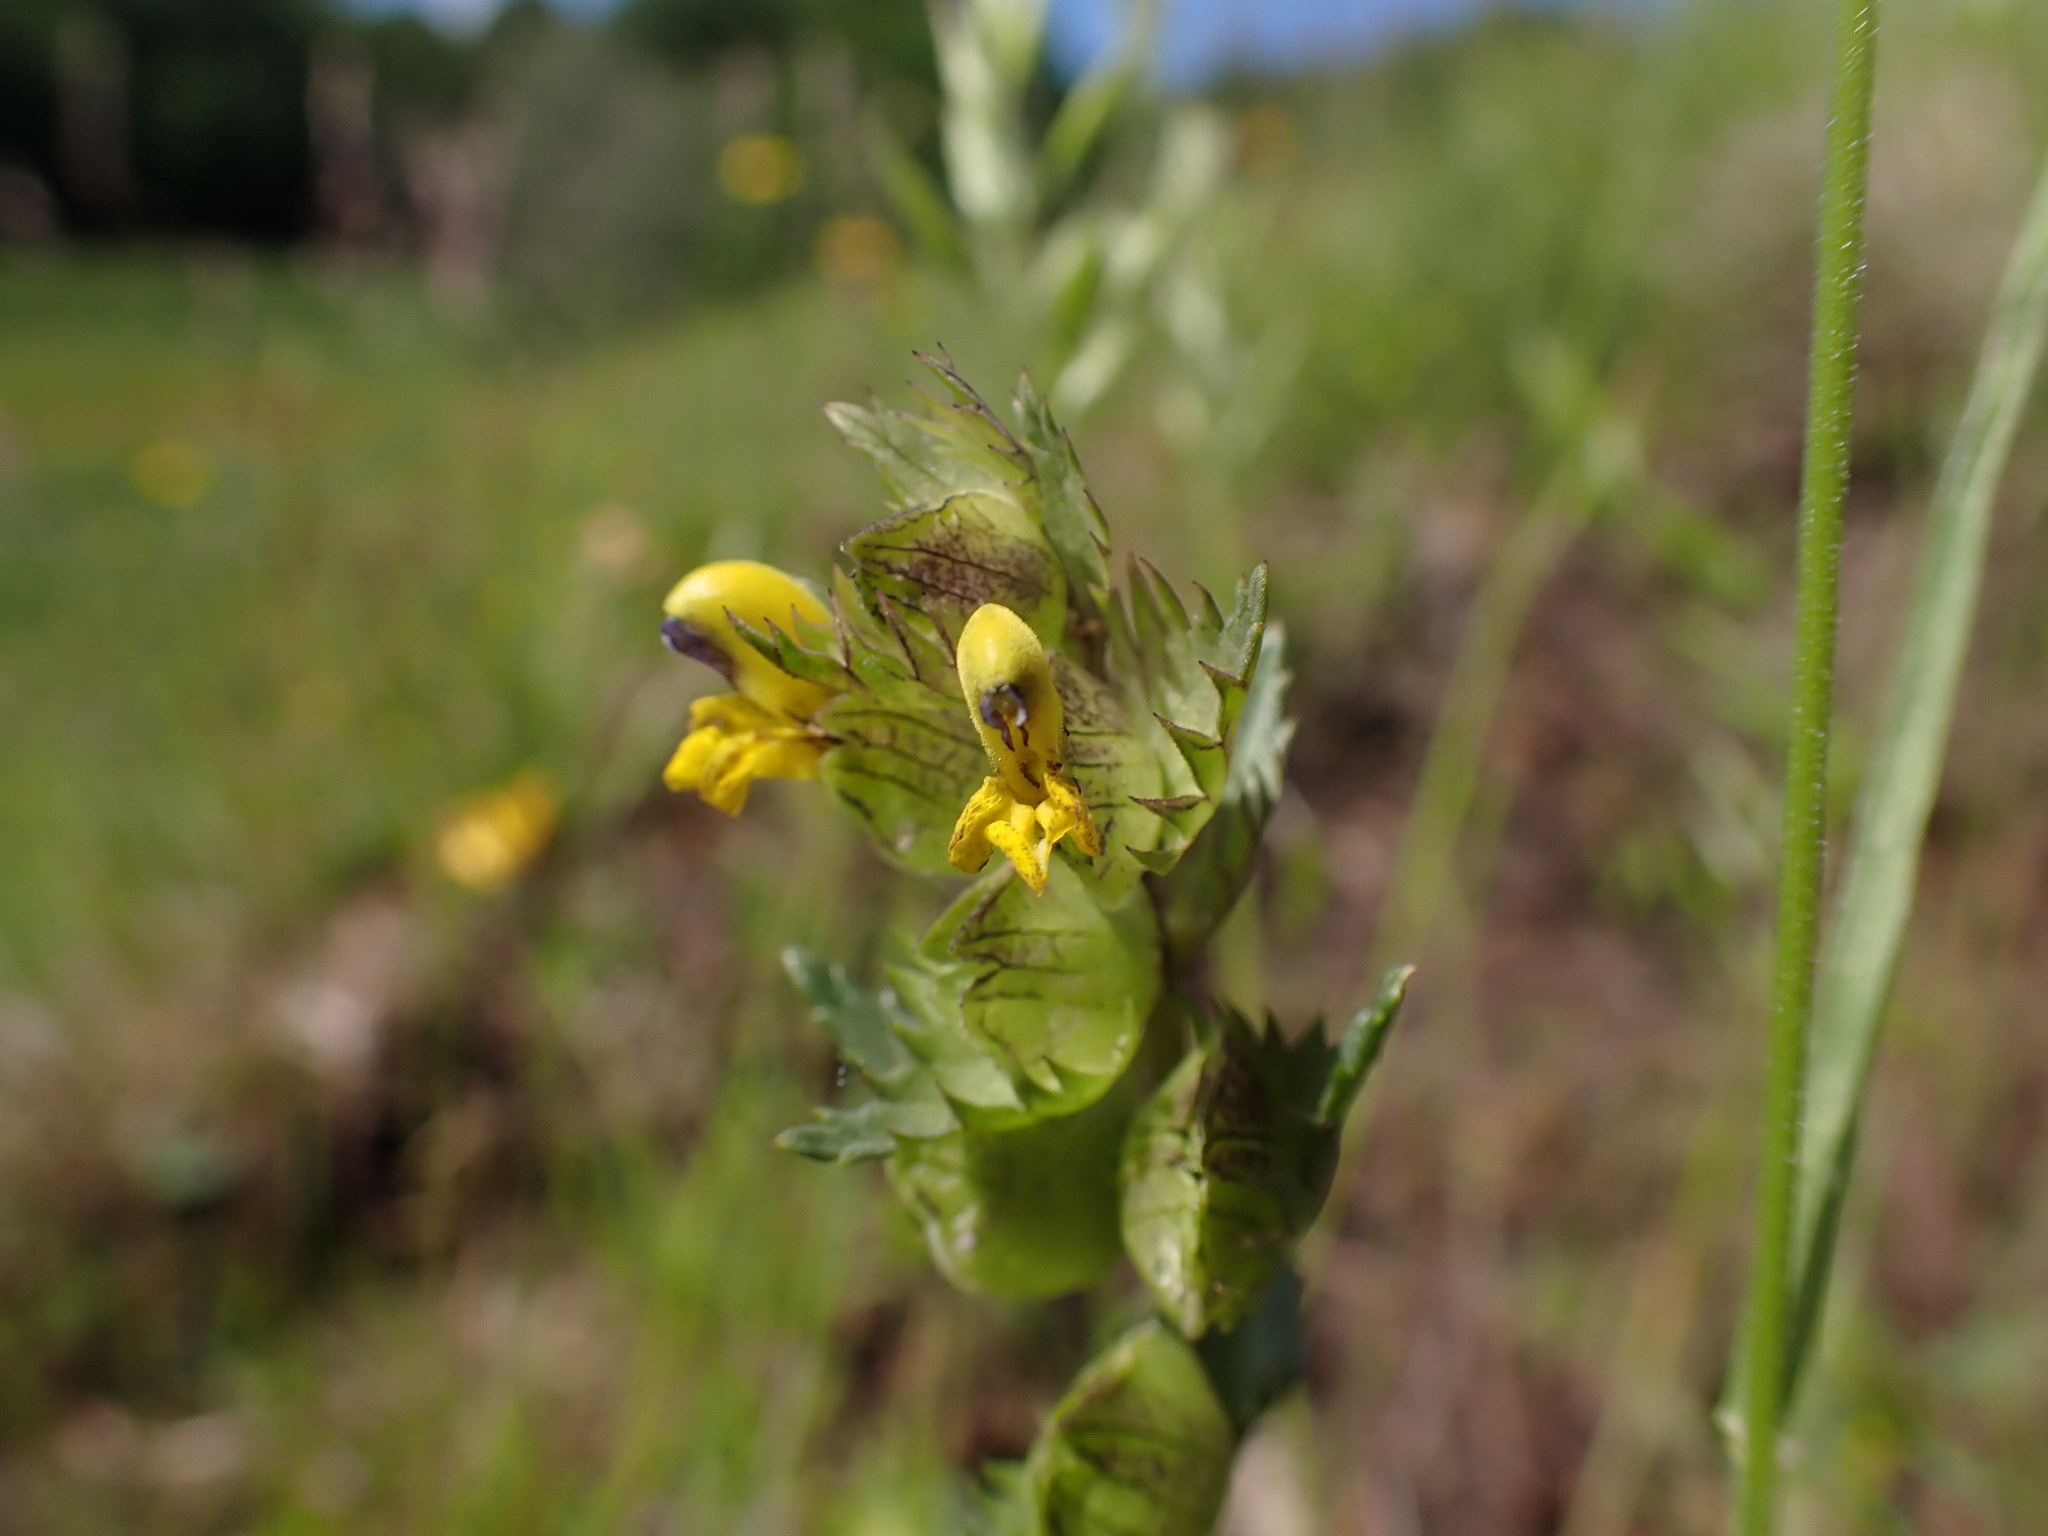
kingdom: Plantae
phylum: Tracheophyta
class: Magnoliopsida
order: Lamiales
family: Orobanchaceae
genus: Rhinanthus
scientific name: Rhinanthus minor
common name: Yellow-rattle
